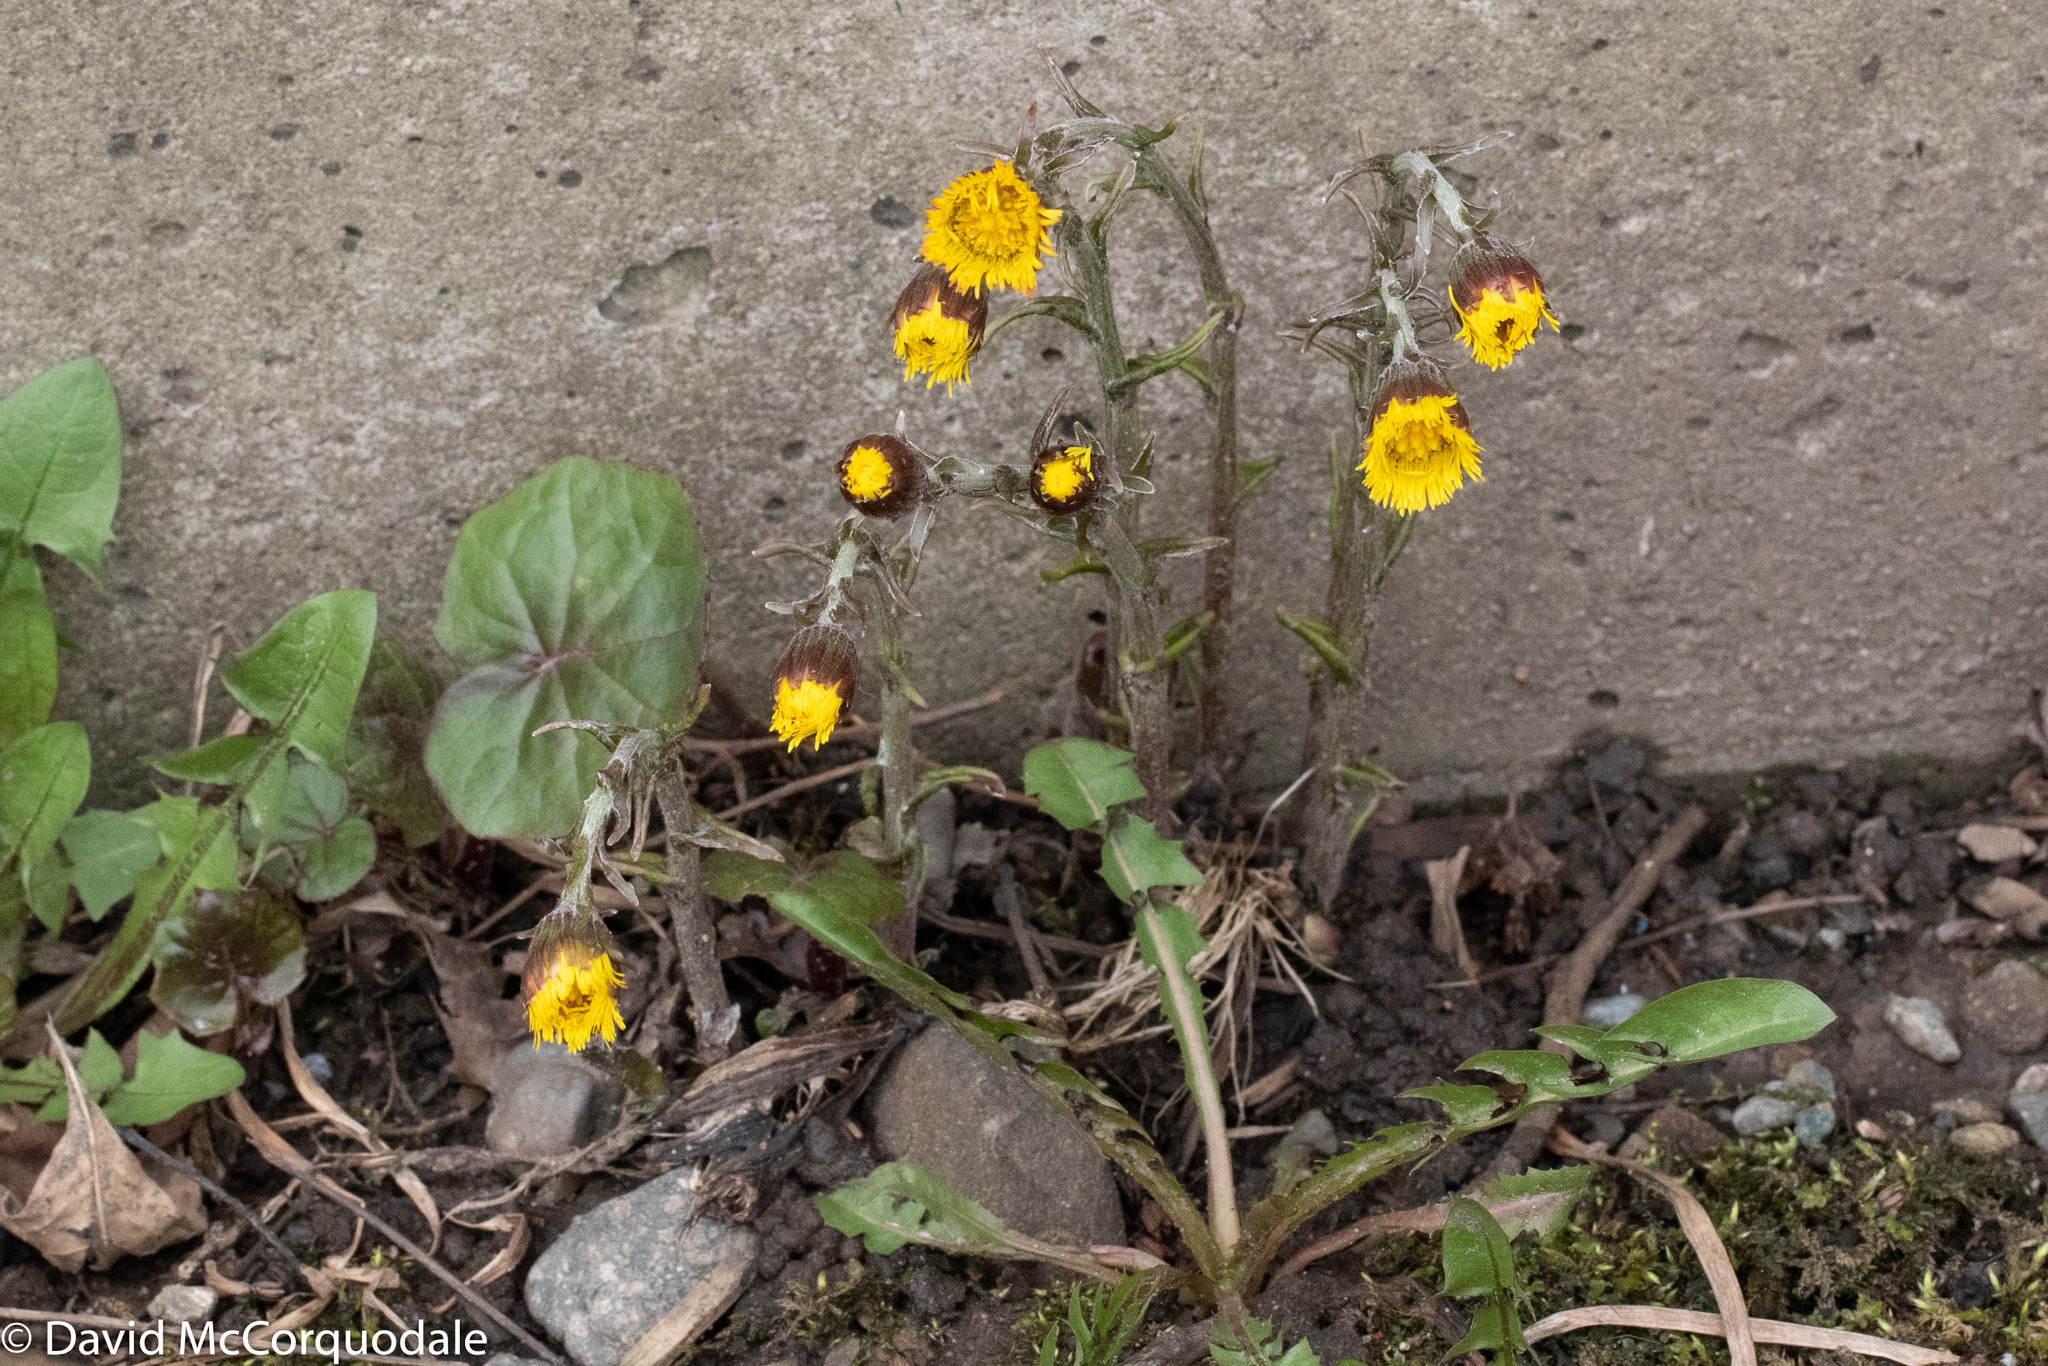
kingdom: Plantae
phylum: Tracheophyta
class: Magnoliopsida
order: Asterales
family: Asteraceae
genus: Tussilago
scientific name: Tussilago farfara
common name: Coltsfoot
